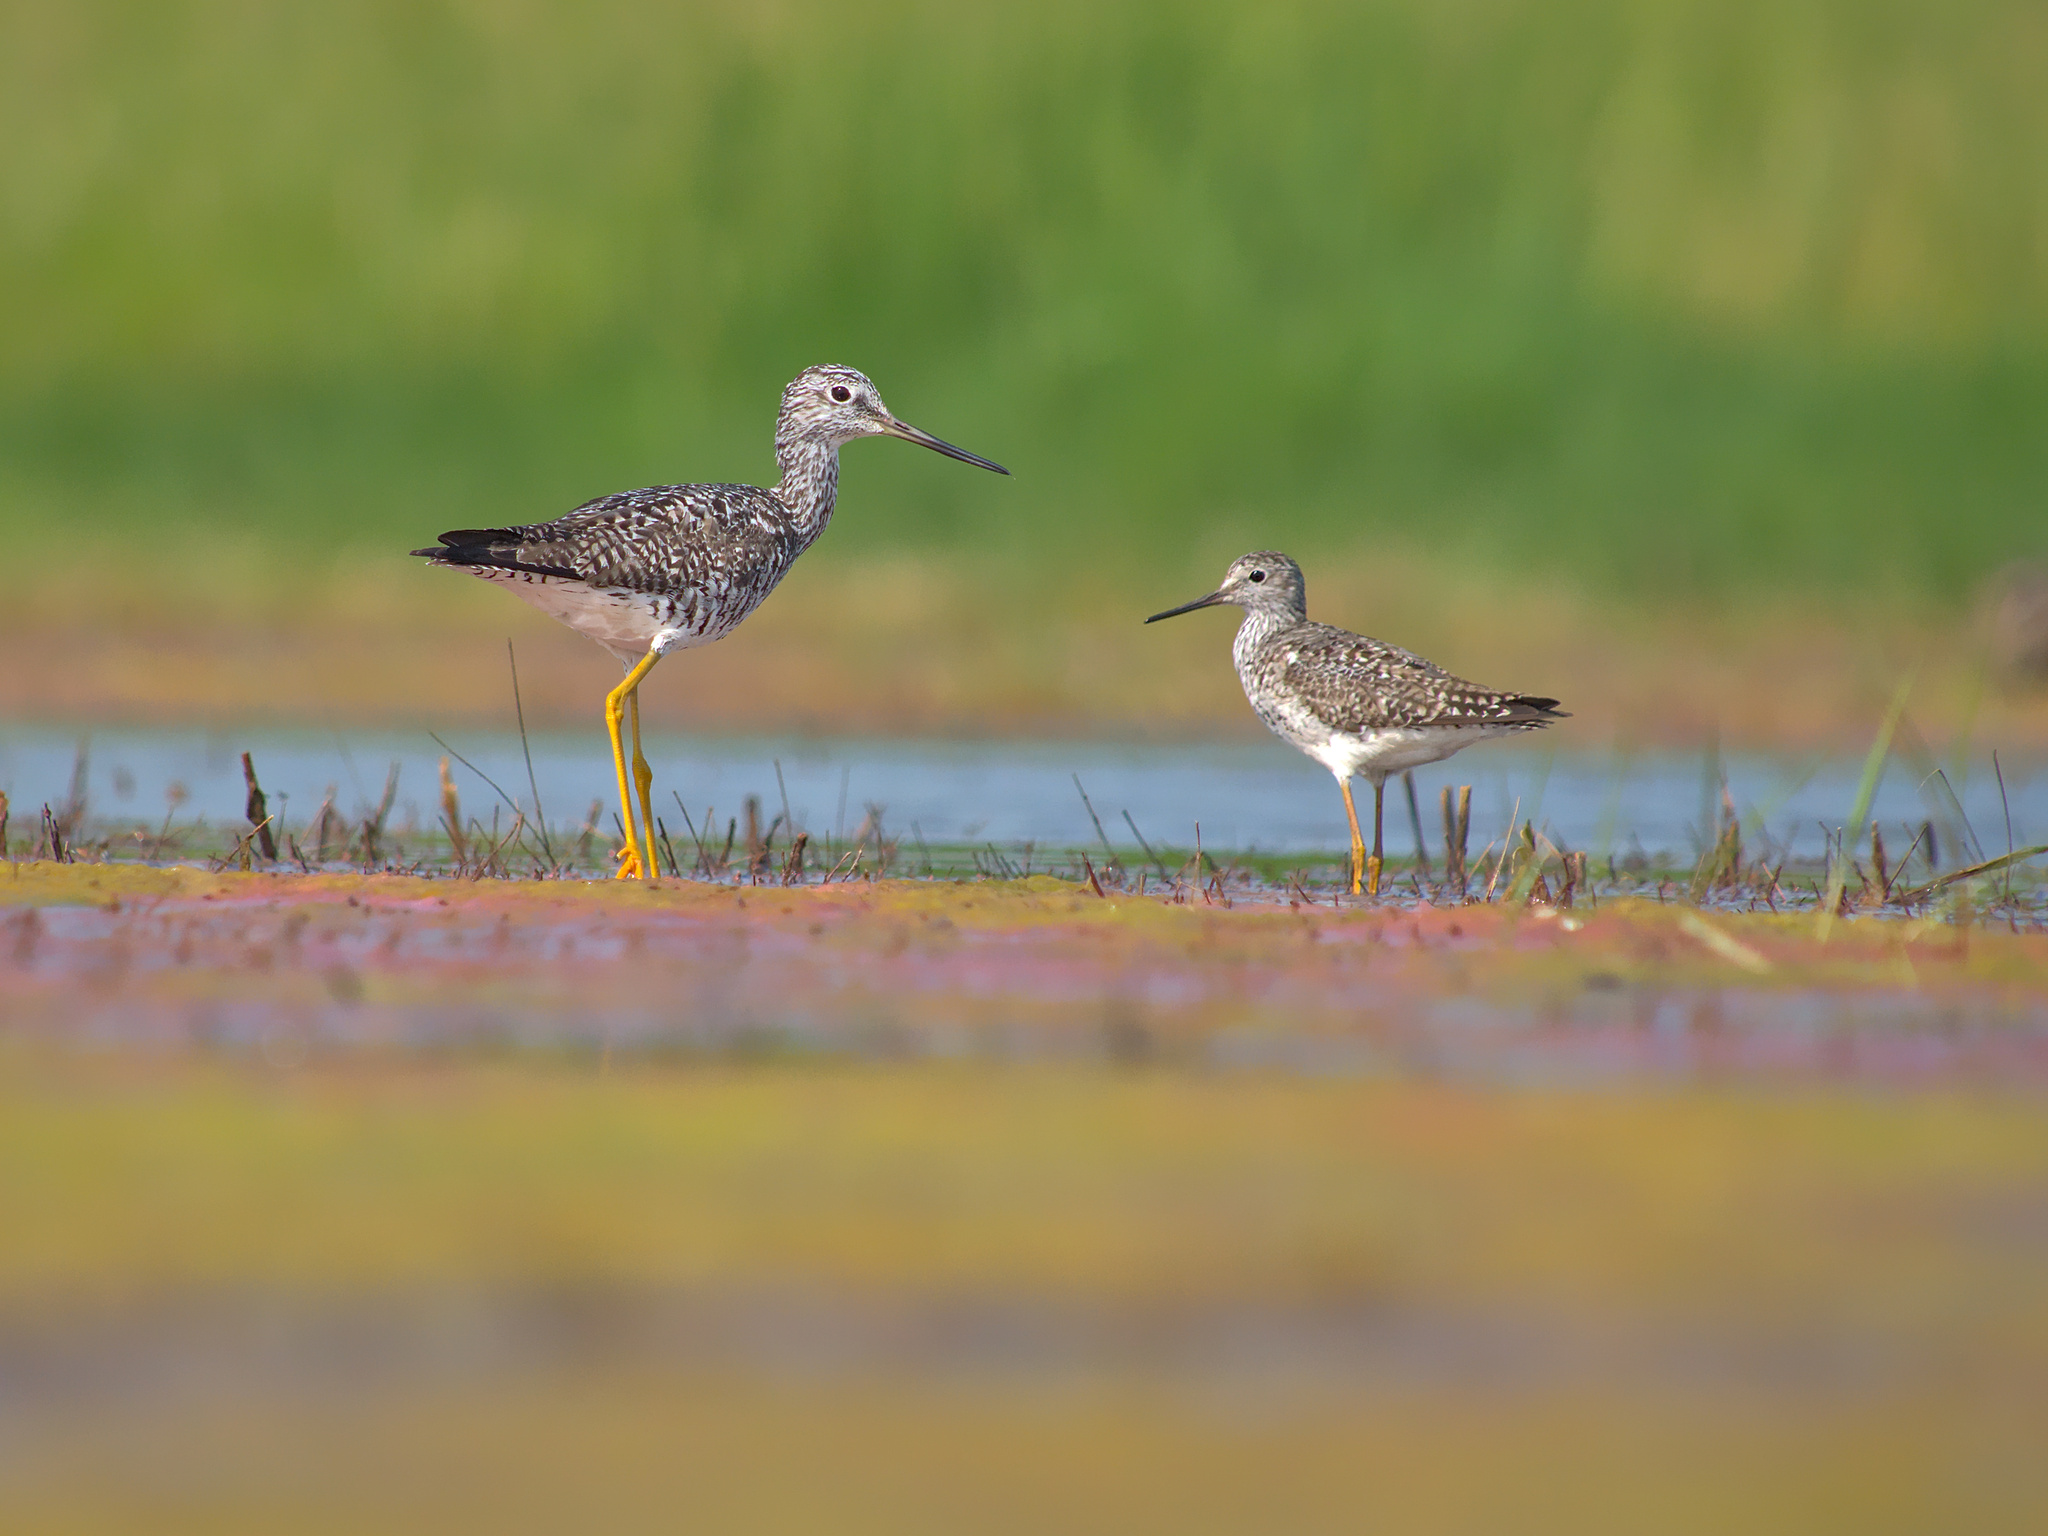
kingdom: Animalia
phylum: Chordata
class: Aves
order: Charadriiformes
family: Scolopacidae
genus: Tringa
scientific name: Tringa melanoleuca
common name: Greater yellowlegs
